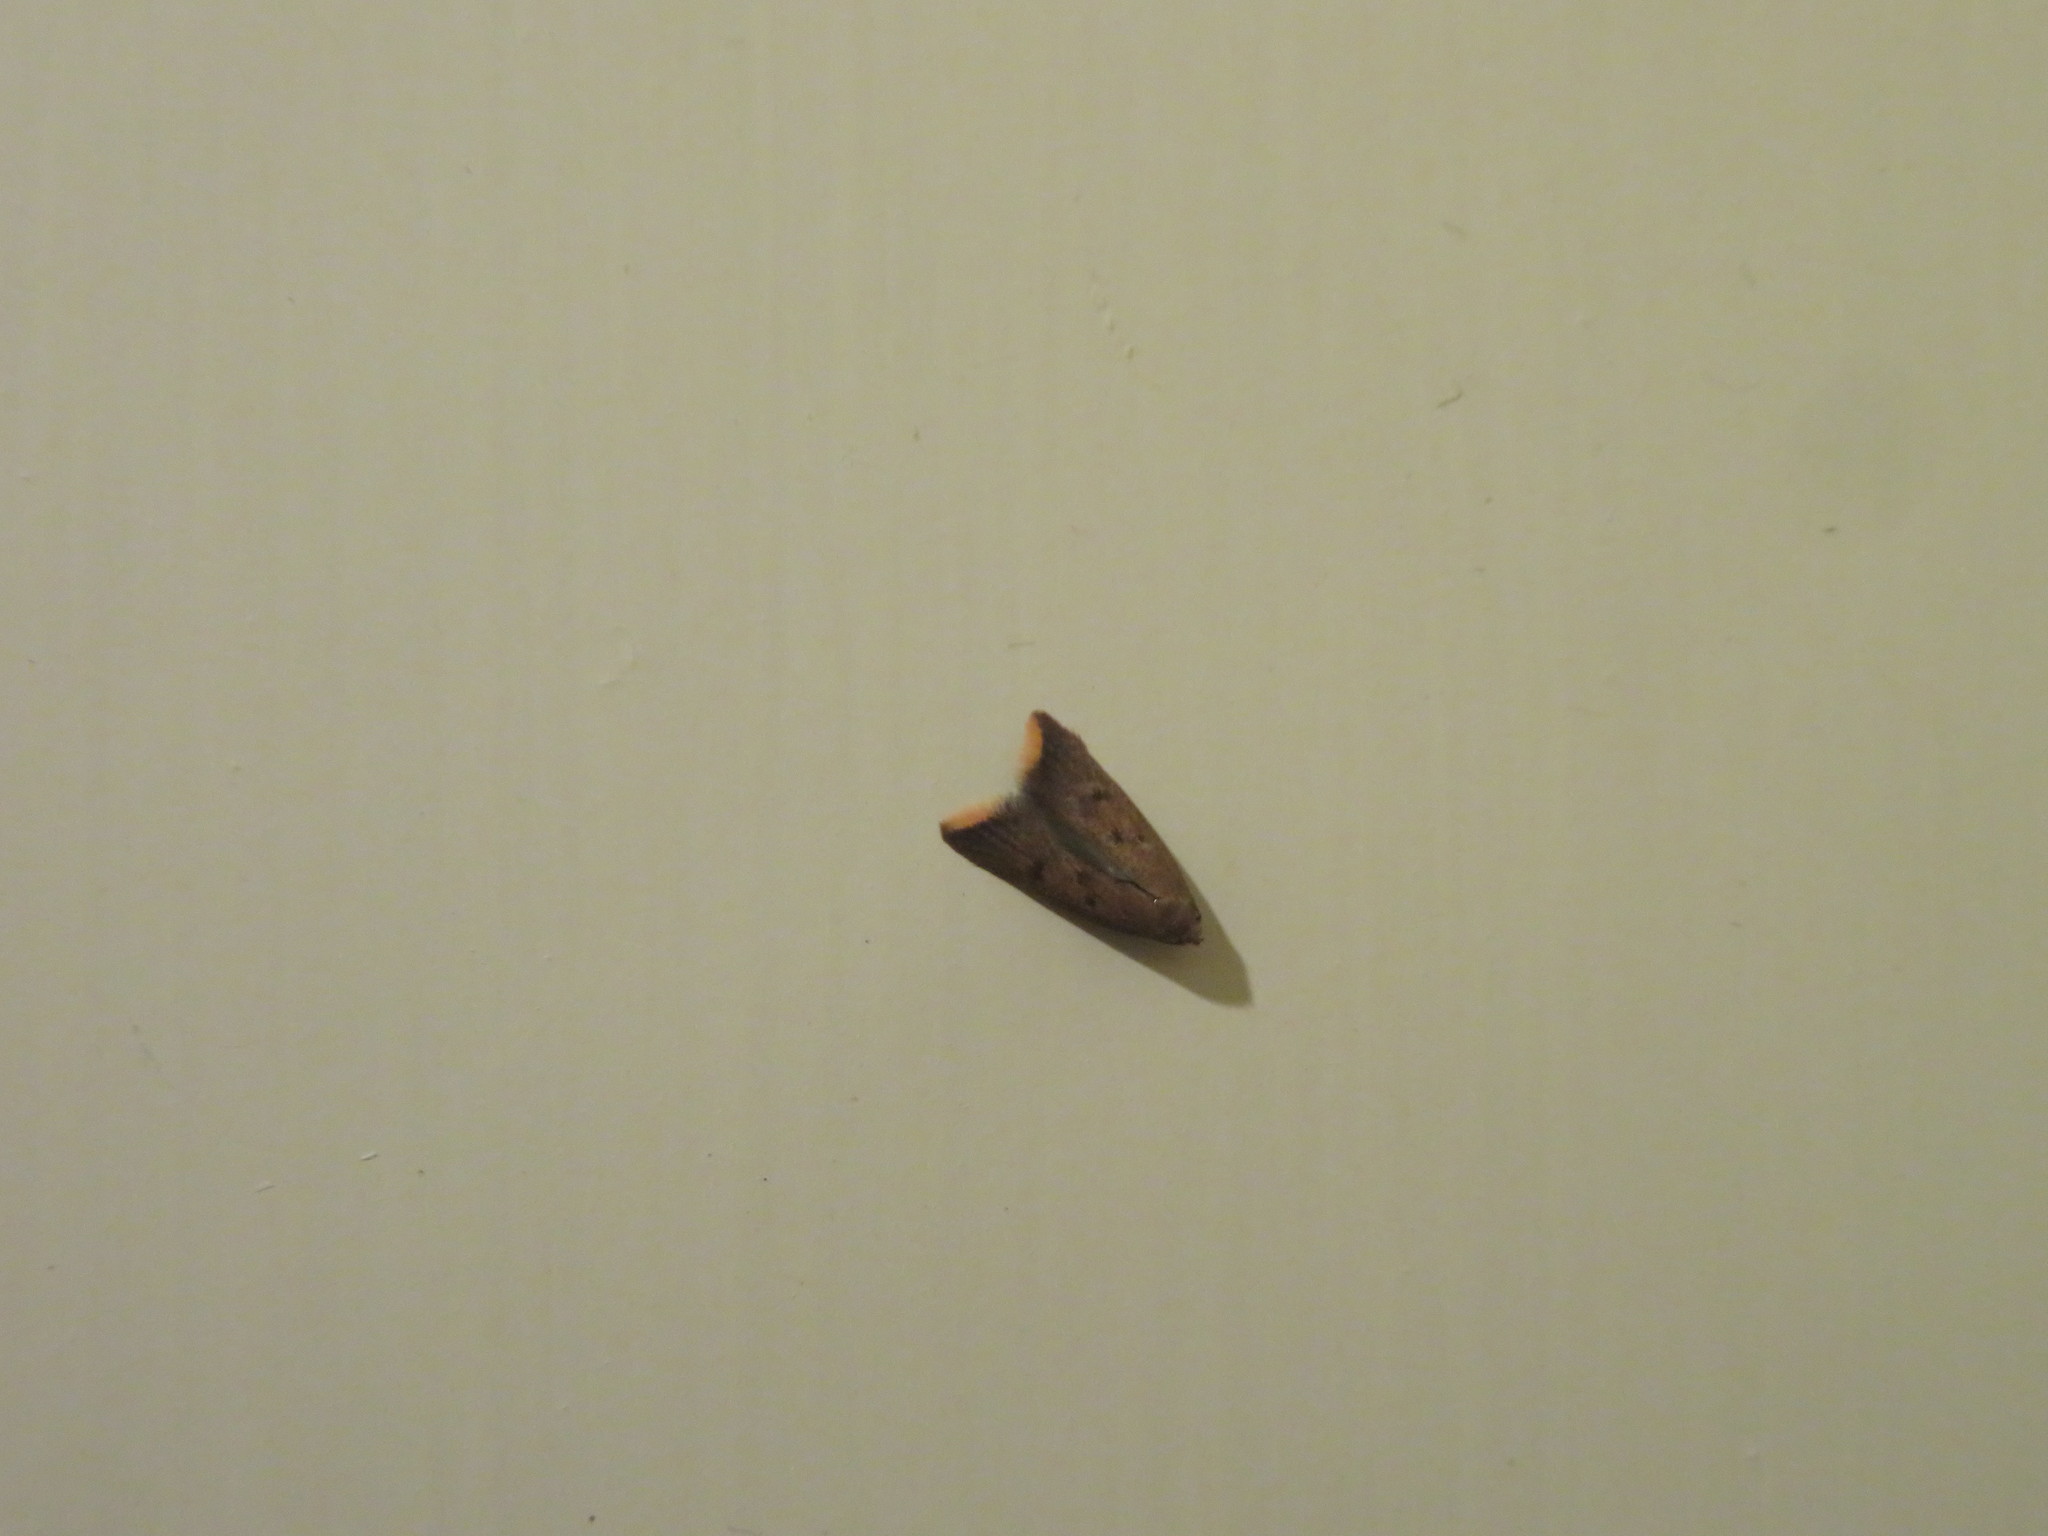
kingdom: Animalia
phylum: Arthropoda
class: Insecta
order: Lepidoptera
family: Oecophoridae
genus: Tachystola
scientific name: Tachystola acroxantha
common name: Ruddy streak
